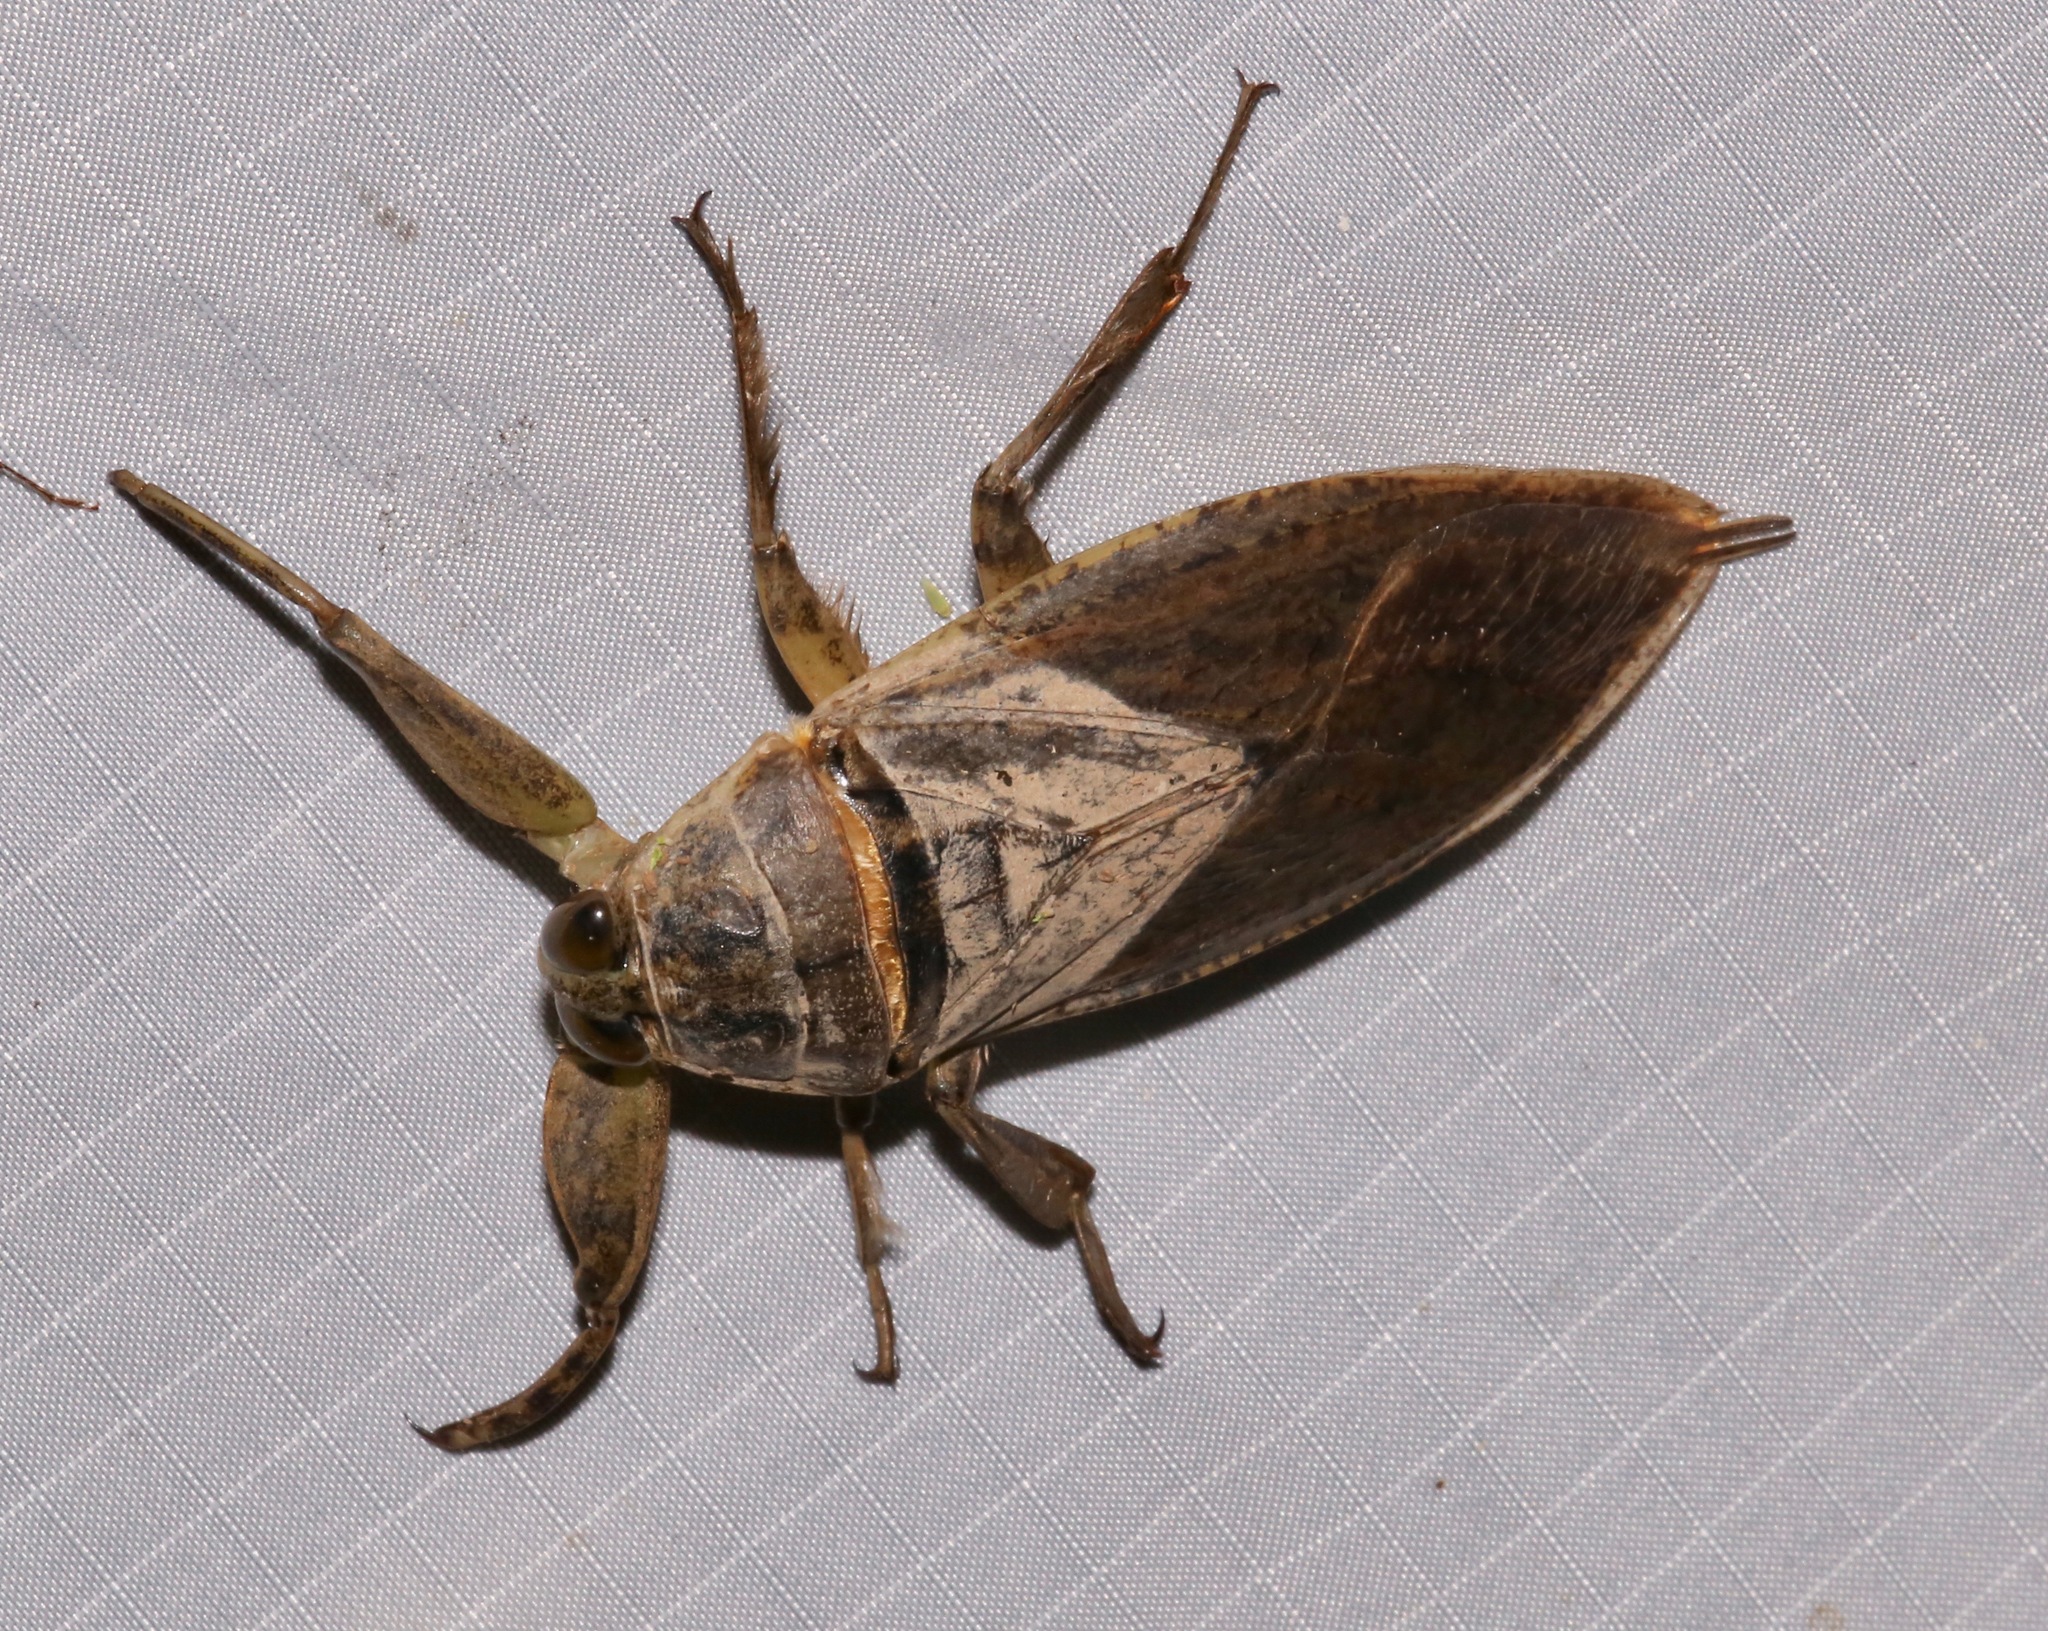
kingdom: Animalia
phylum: Arthropoda
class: Insecta
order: Hemiptera
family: Belostomatidae
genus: Lethocerus
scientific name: Lethocerus medius
